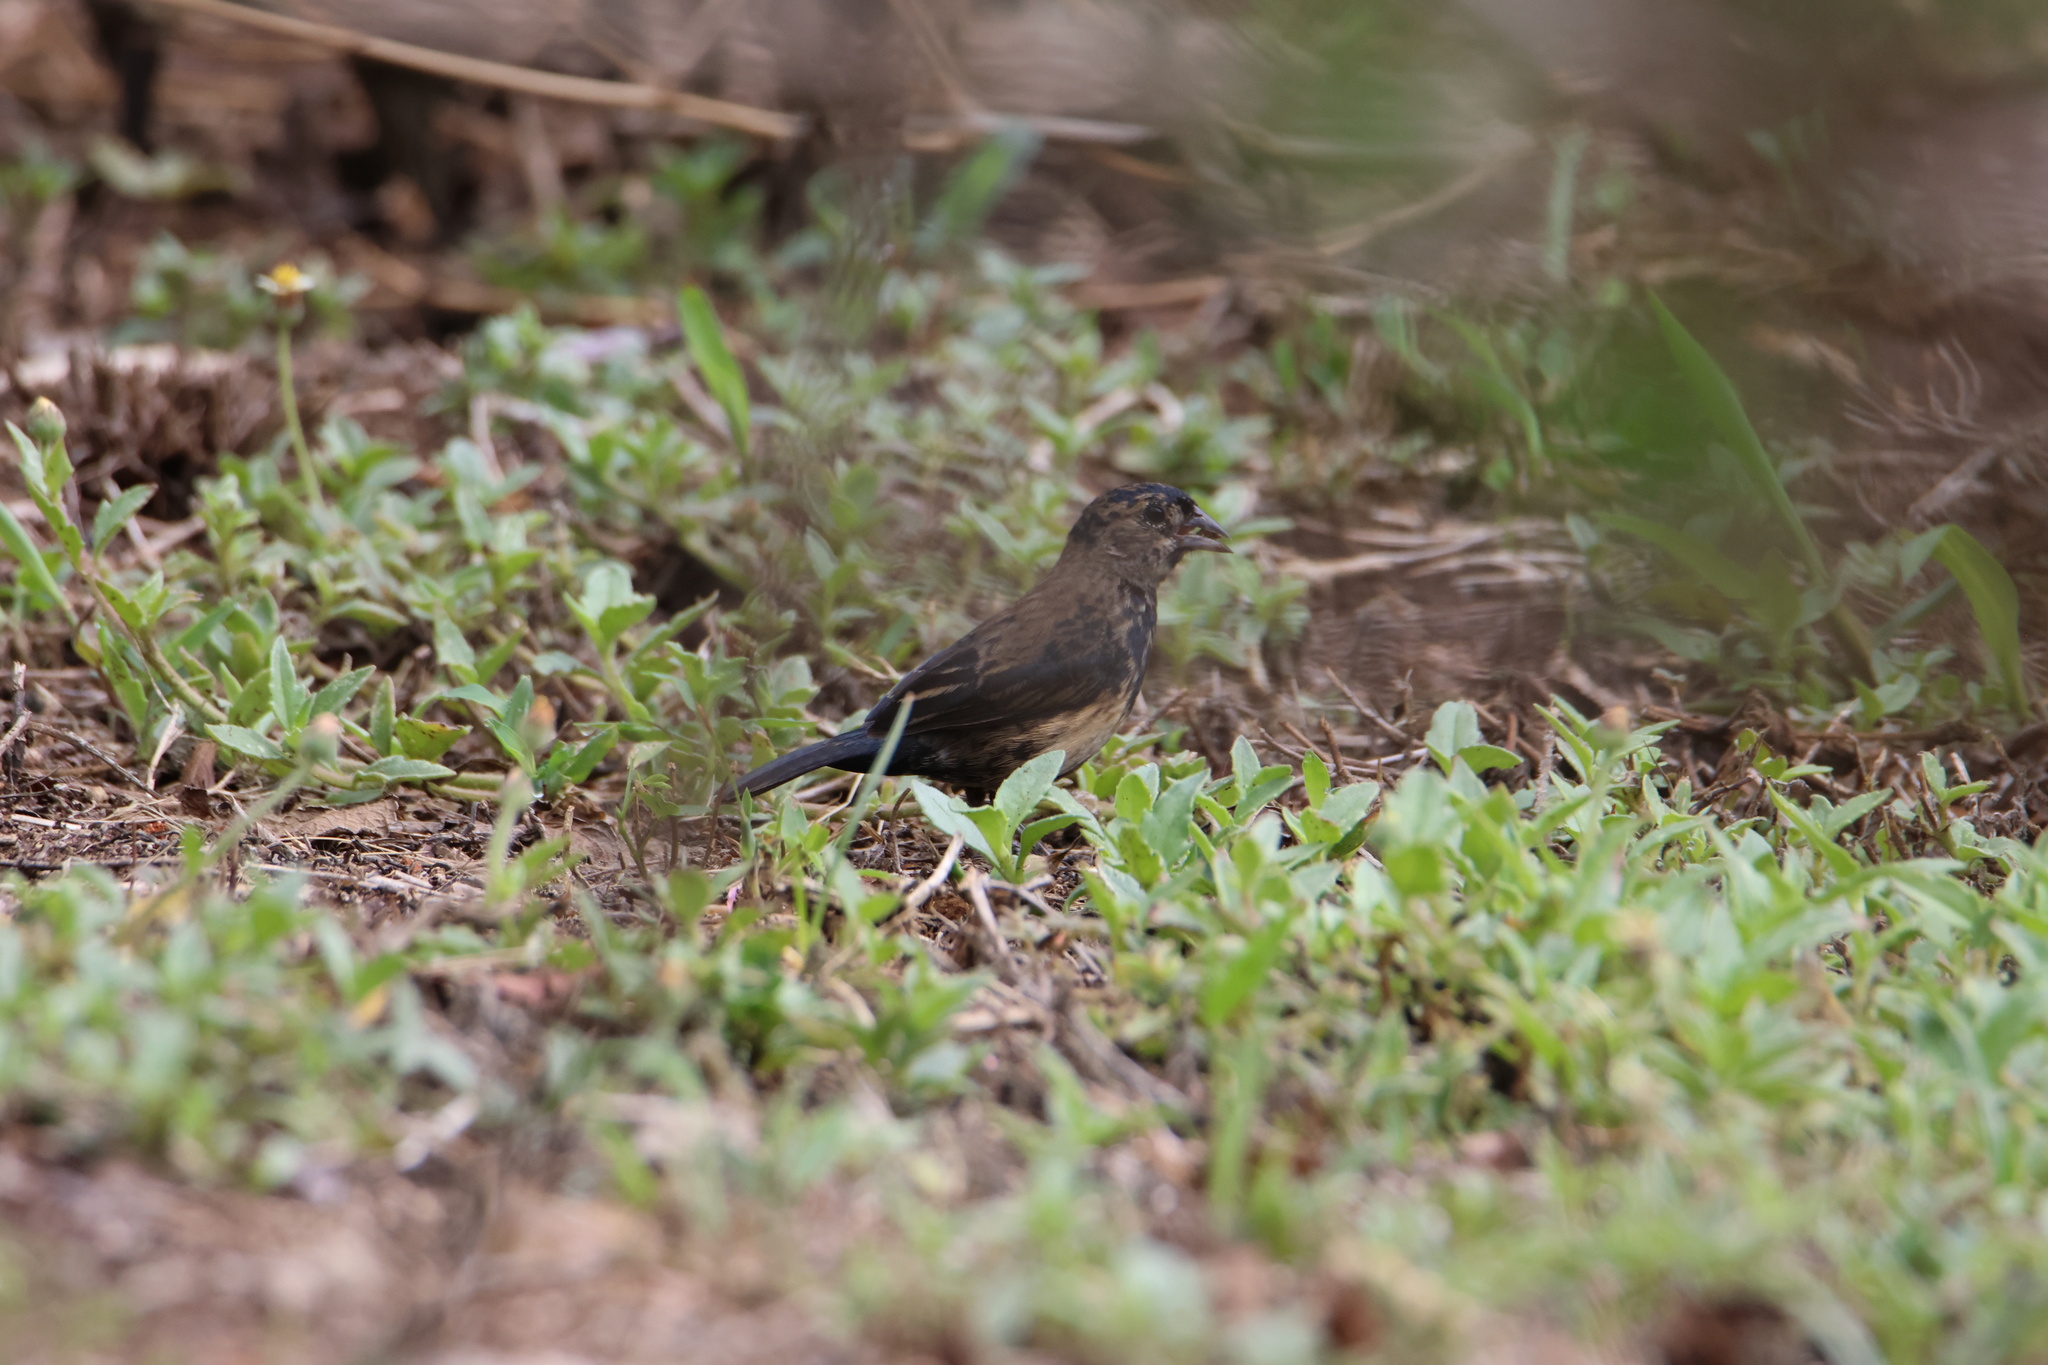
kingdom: Animalia
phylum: Chordata
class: Aves
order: Passeriformes
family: Thraupidae
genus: Volatinia
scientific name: Volatinia jacarina
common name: Blue-black grassquit
